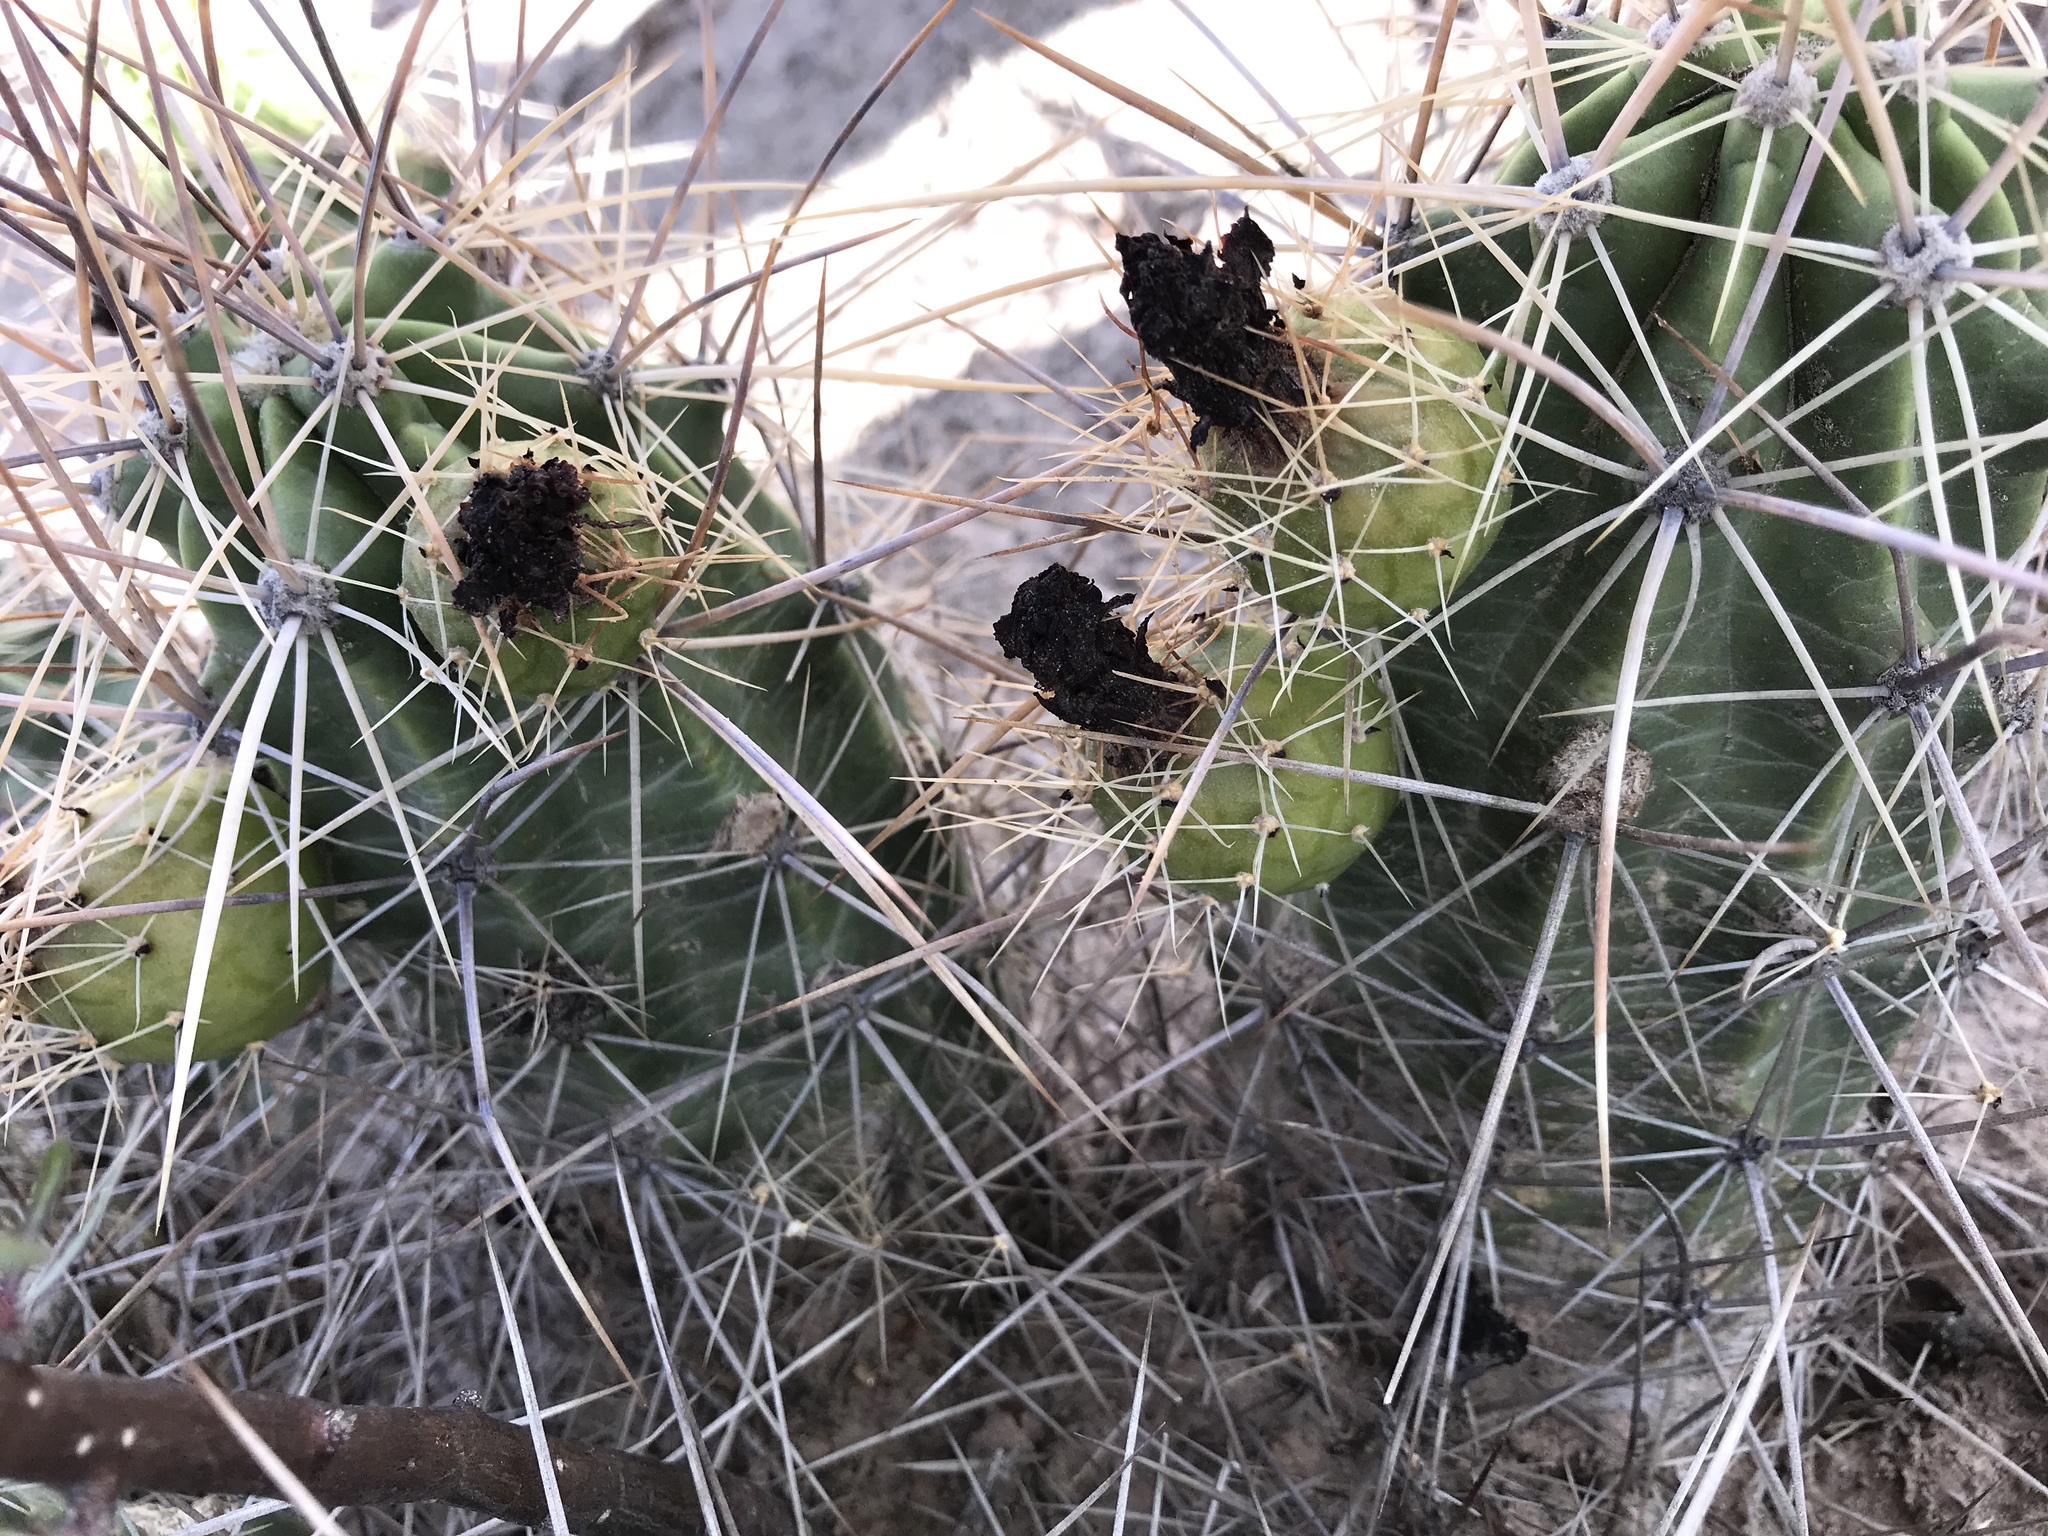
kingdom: Plantae
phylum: Tracheophyta
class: Magnoliopsida
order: Caryophyllales
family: Cactaceae
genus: Echinocereus
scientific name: Echinocereus enneacanthus
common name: Pitaya
